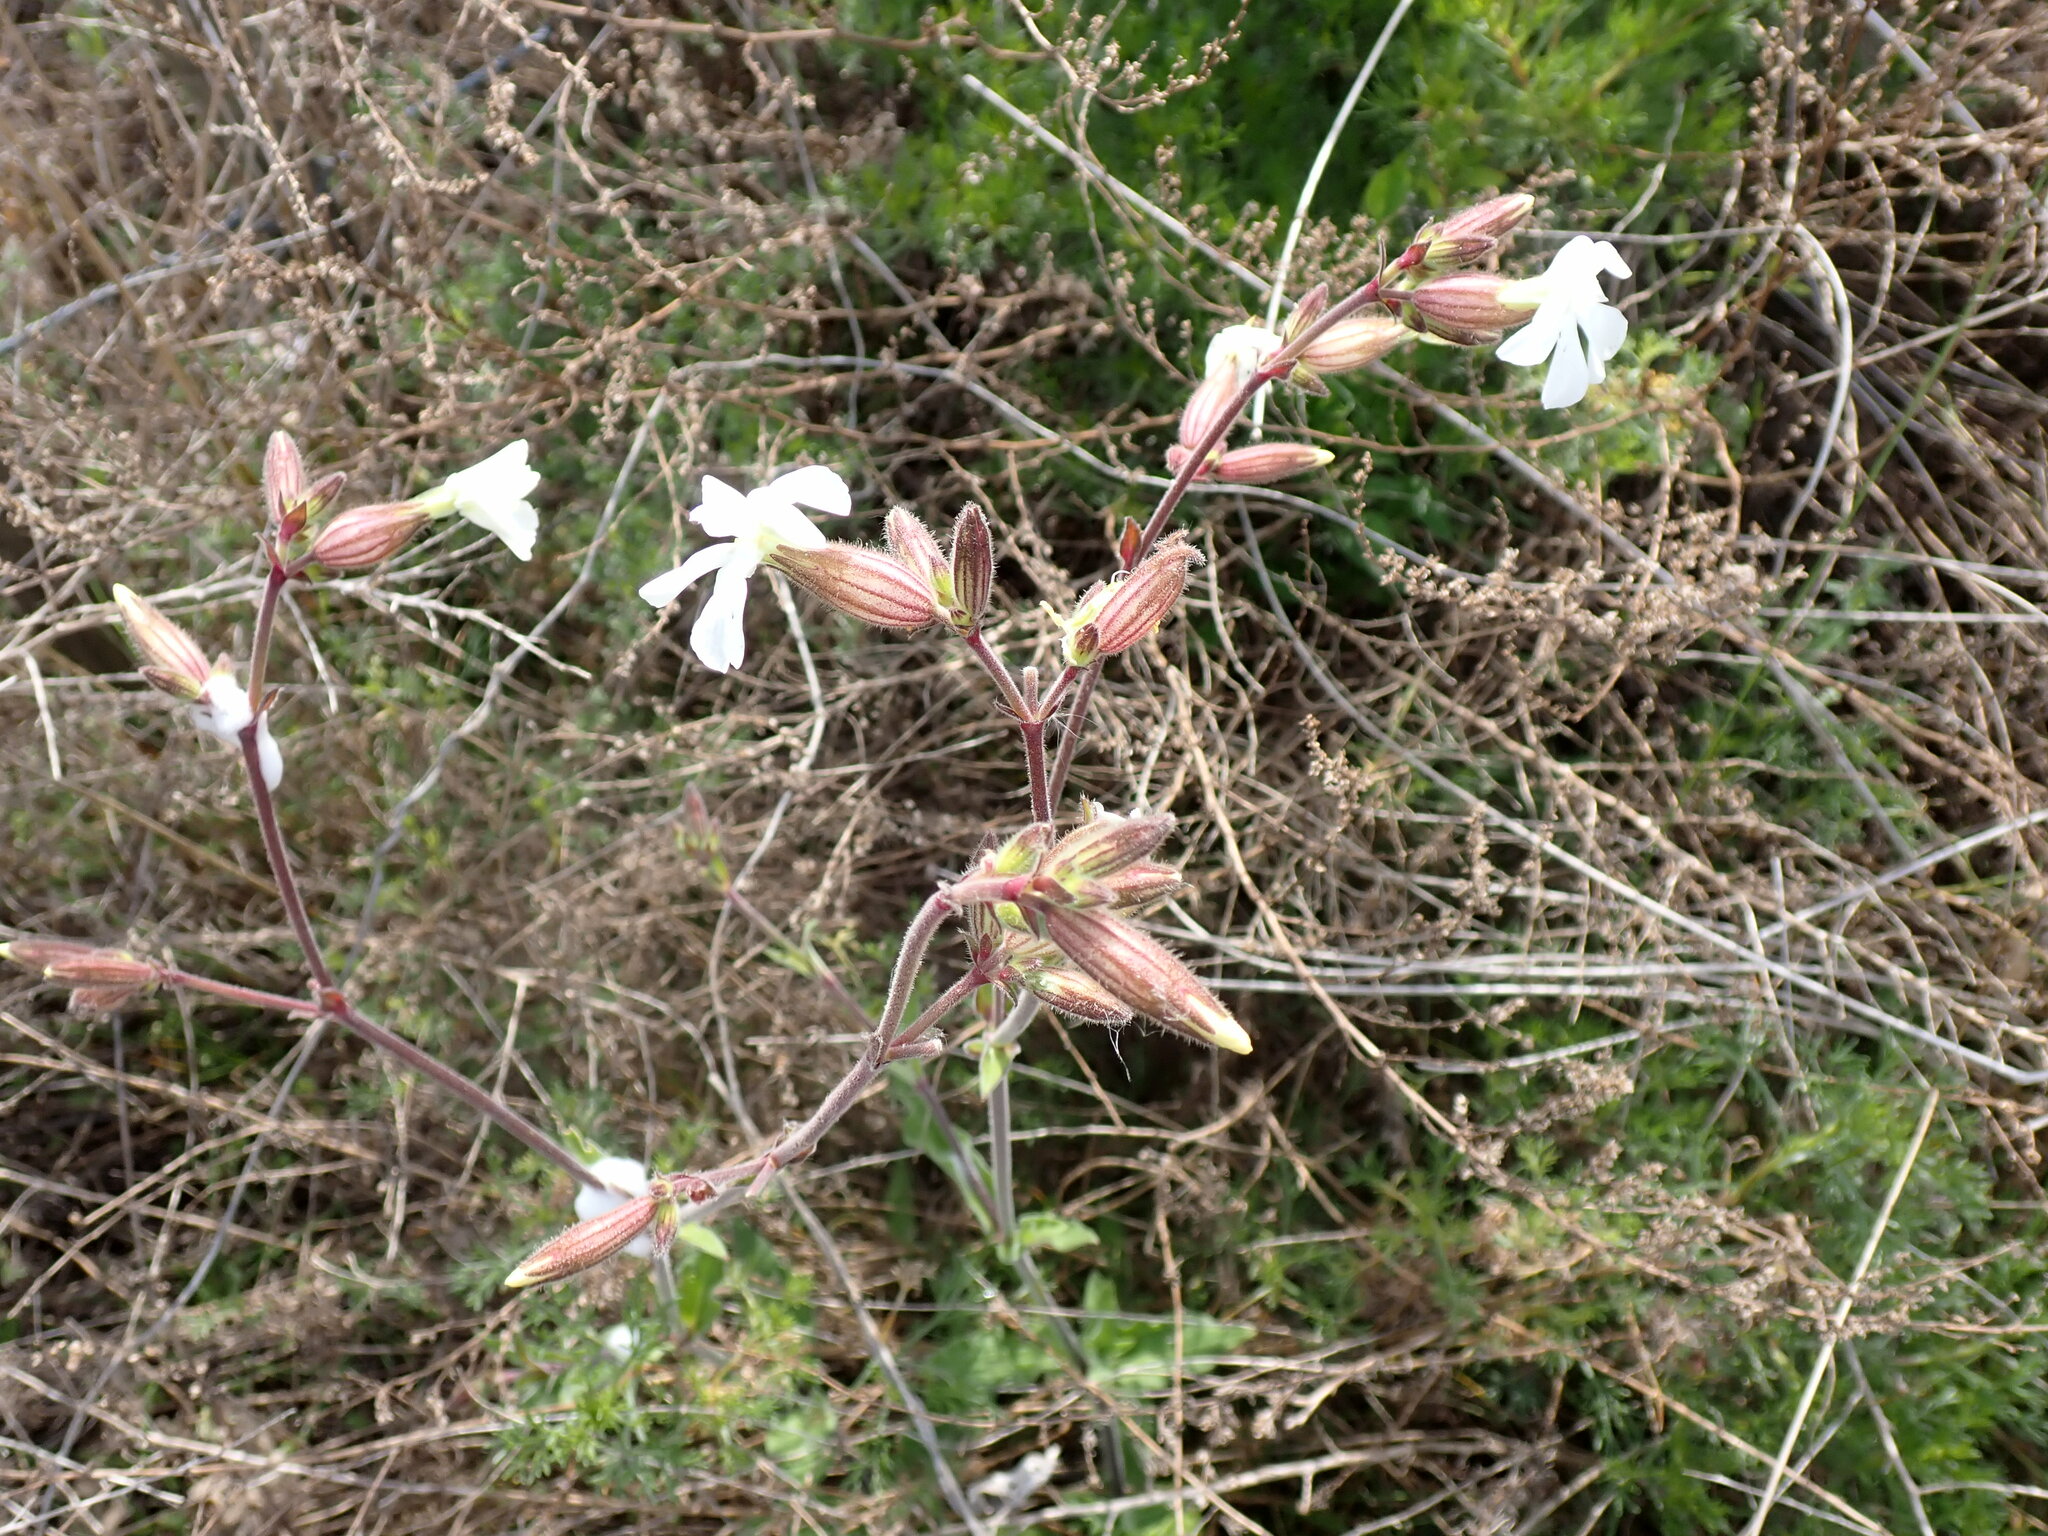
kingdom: Plantae
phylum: Tracheophyta
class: Magnoliopsida
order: Caryophyllales
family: Caryophyllaceae
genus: Silene
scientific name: Silene latifolia
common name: White campion
